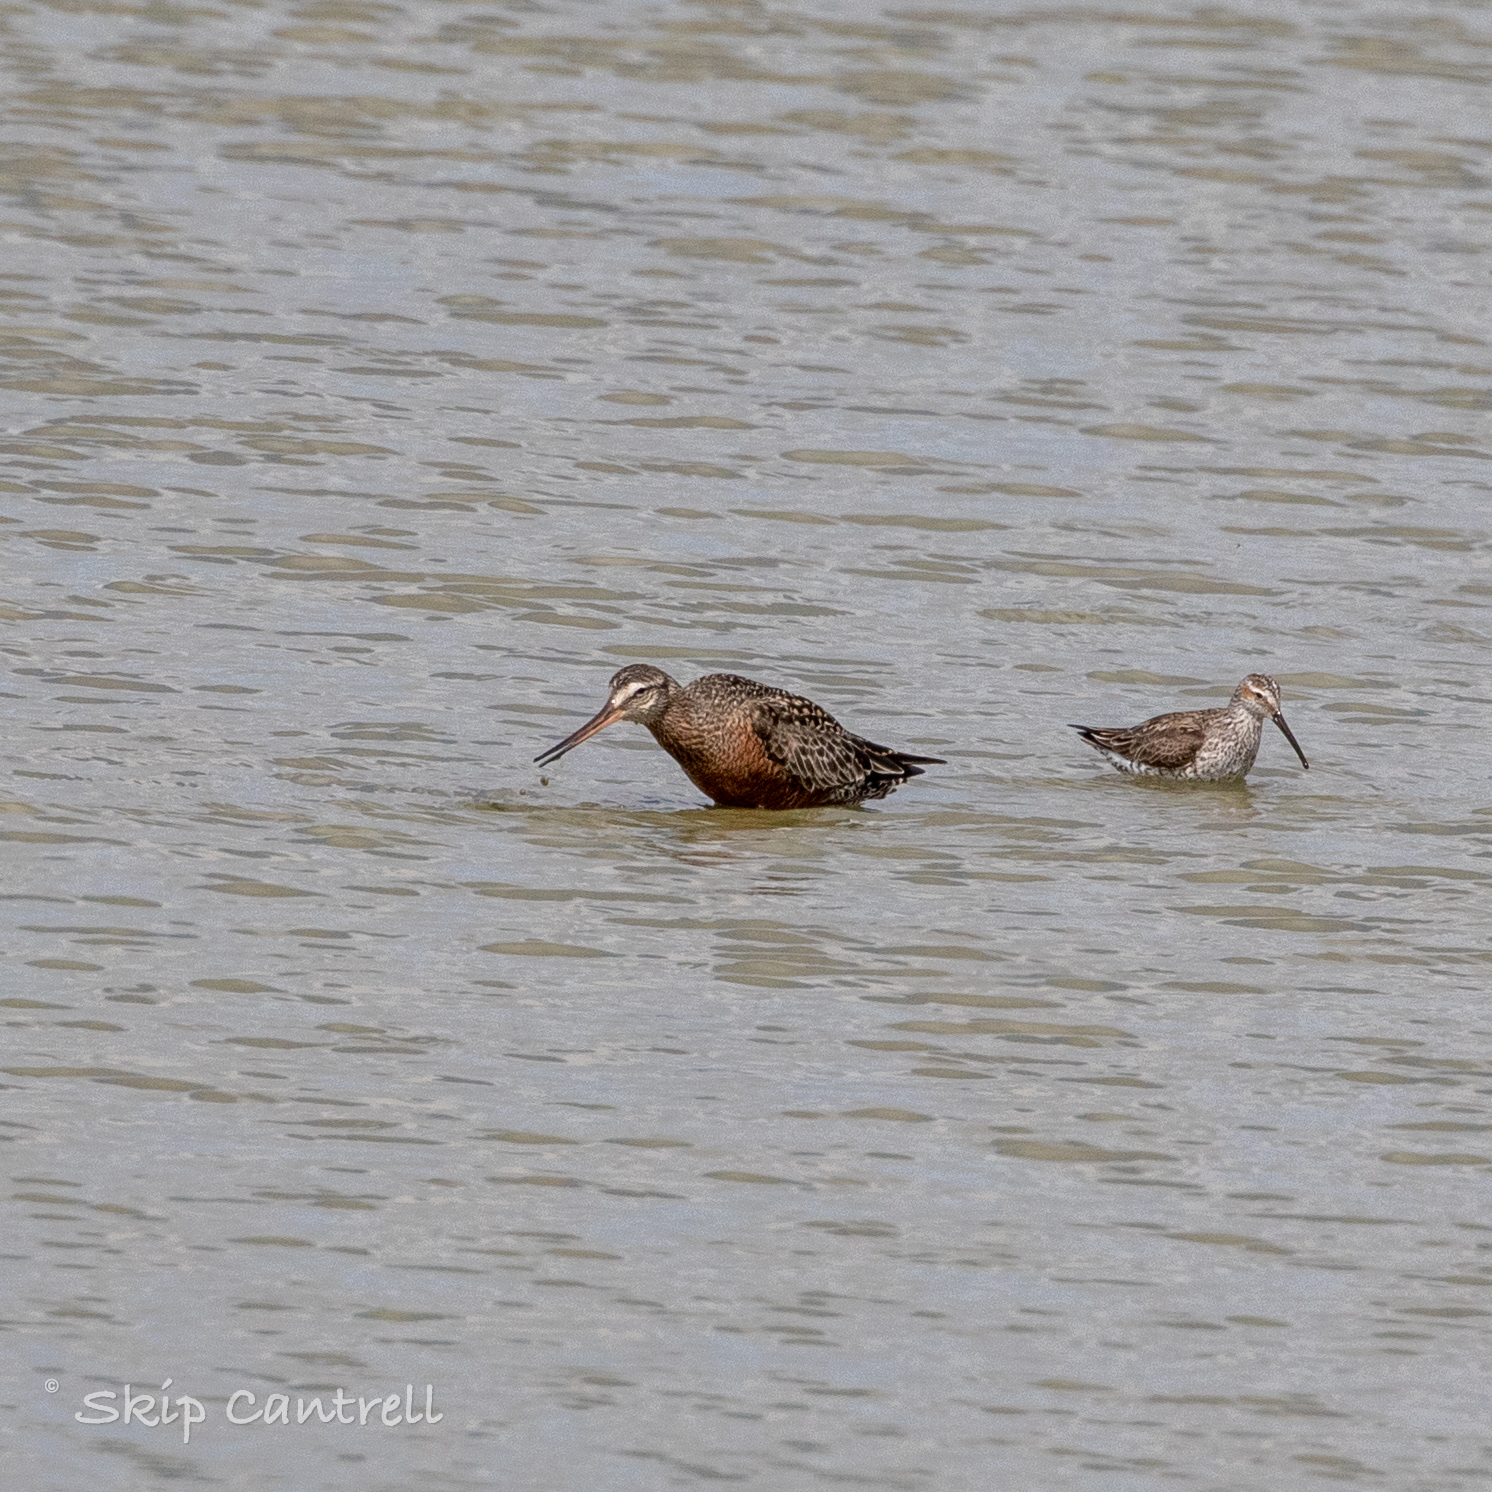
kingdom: Animalia
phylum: Chordata
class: Aves
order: Charadriiformes
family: Scolopacidae
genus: Limosa
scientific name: Limosa haemastica
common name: Hudsonian godwit
